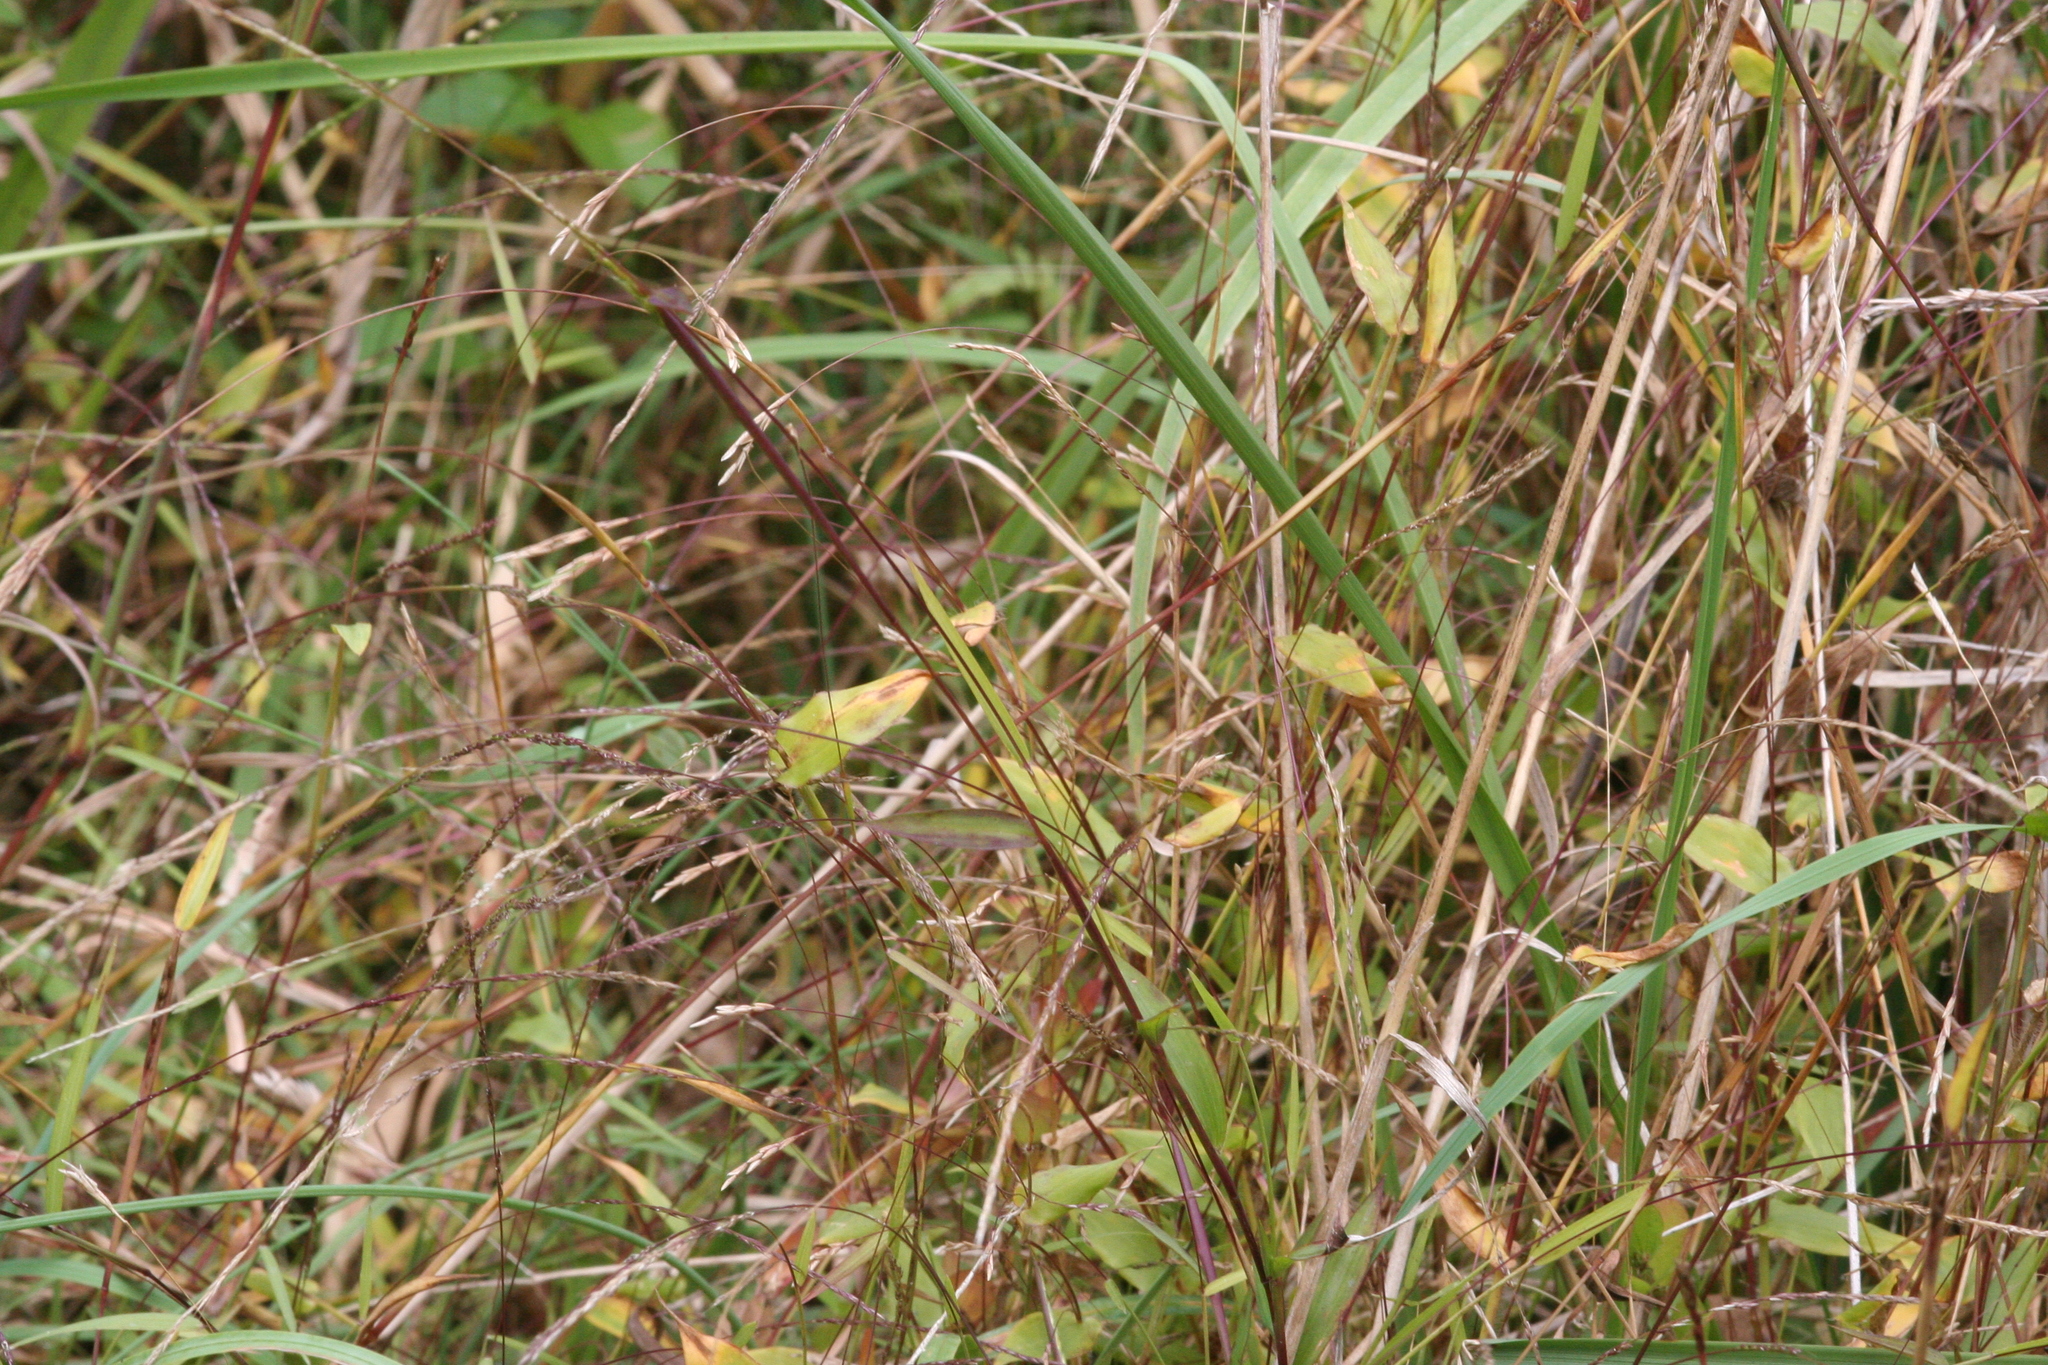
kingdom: Plantae
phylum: Tracheophyta
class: Liliopsida
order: Poales
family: Poaceae
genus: Arthraxon
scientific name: Arthraxon hispidus
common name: Small carpgrass
